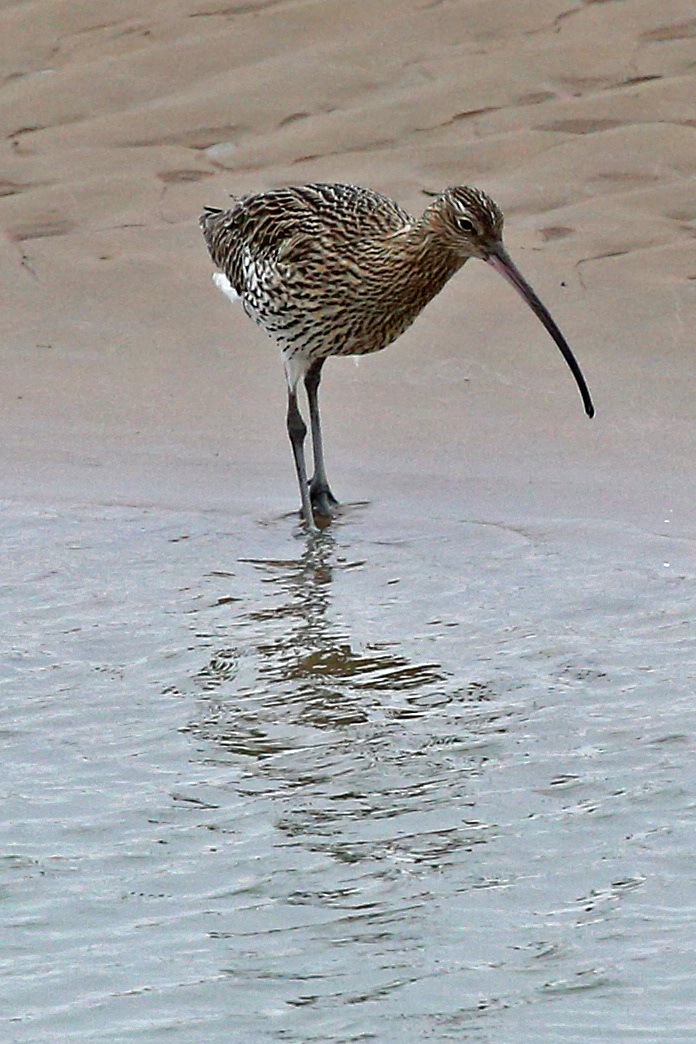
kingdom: Animalia
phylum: Chordata
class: Aves
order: Charadriiformes
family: Scolopacidae
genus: Numenius
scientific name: Numenius arquata
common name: Eurasian curlew
